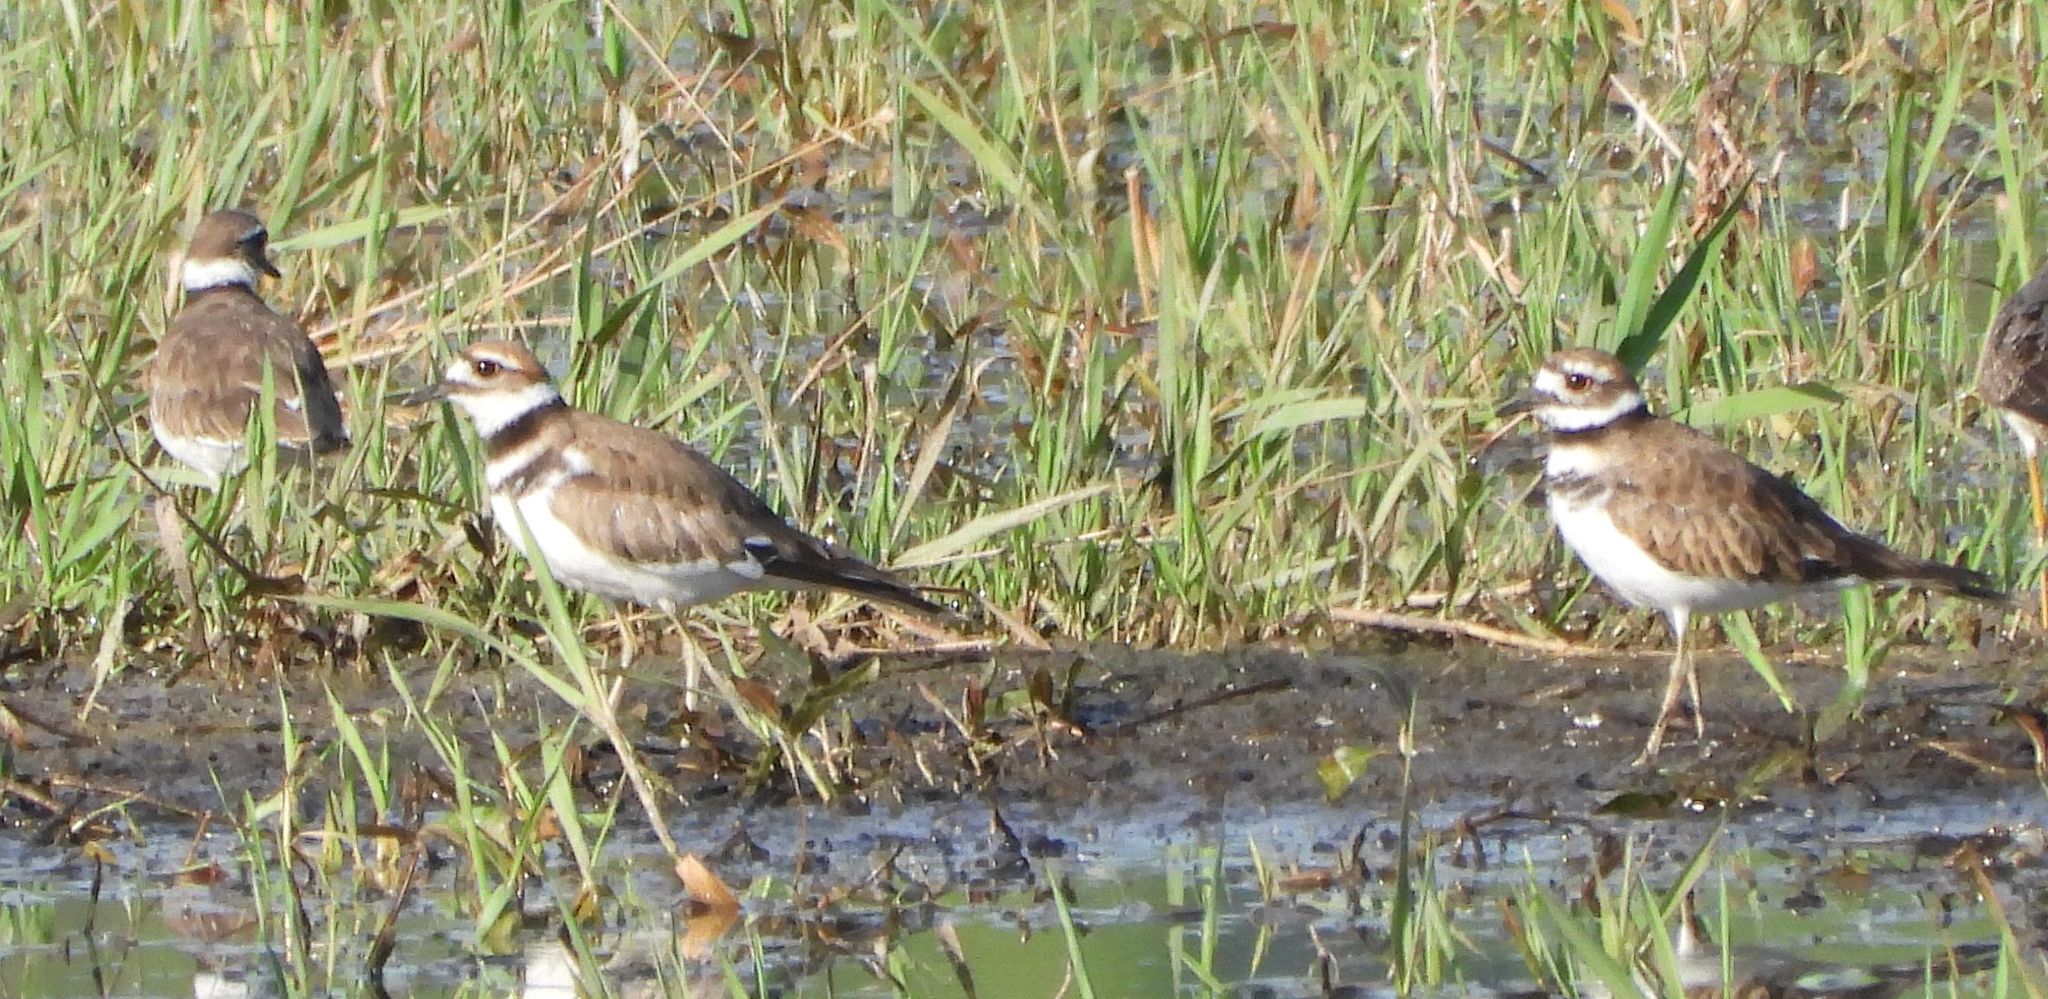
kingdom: Animalia
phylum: Chordata
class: Aves
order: Charadriiformes
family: Charadriidae
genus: Charadrius
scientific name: Charadrius vociferus
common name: Killdeer
